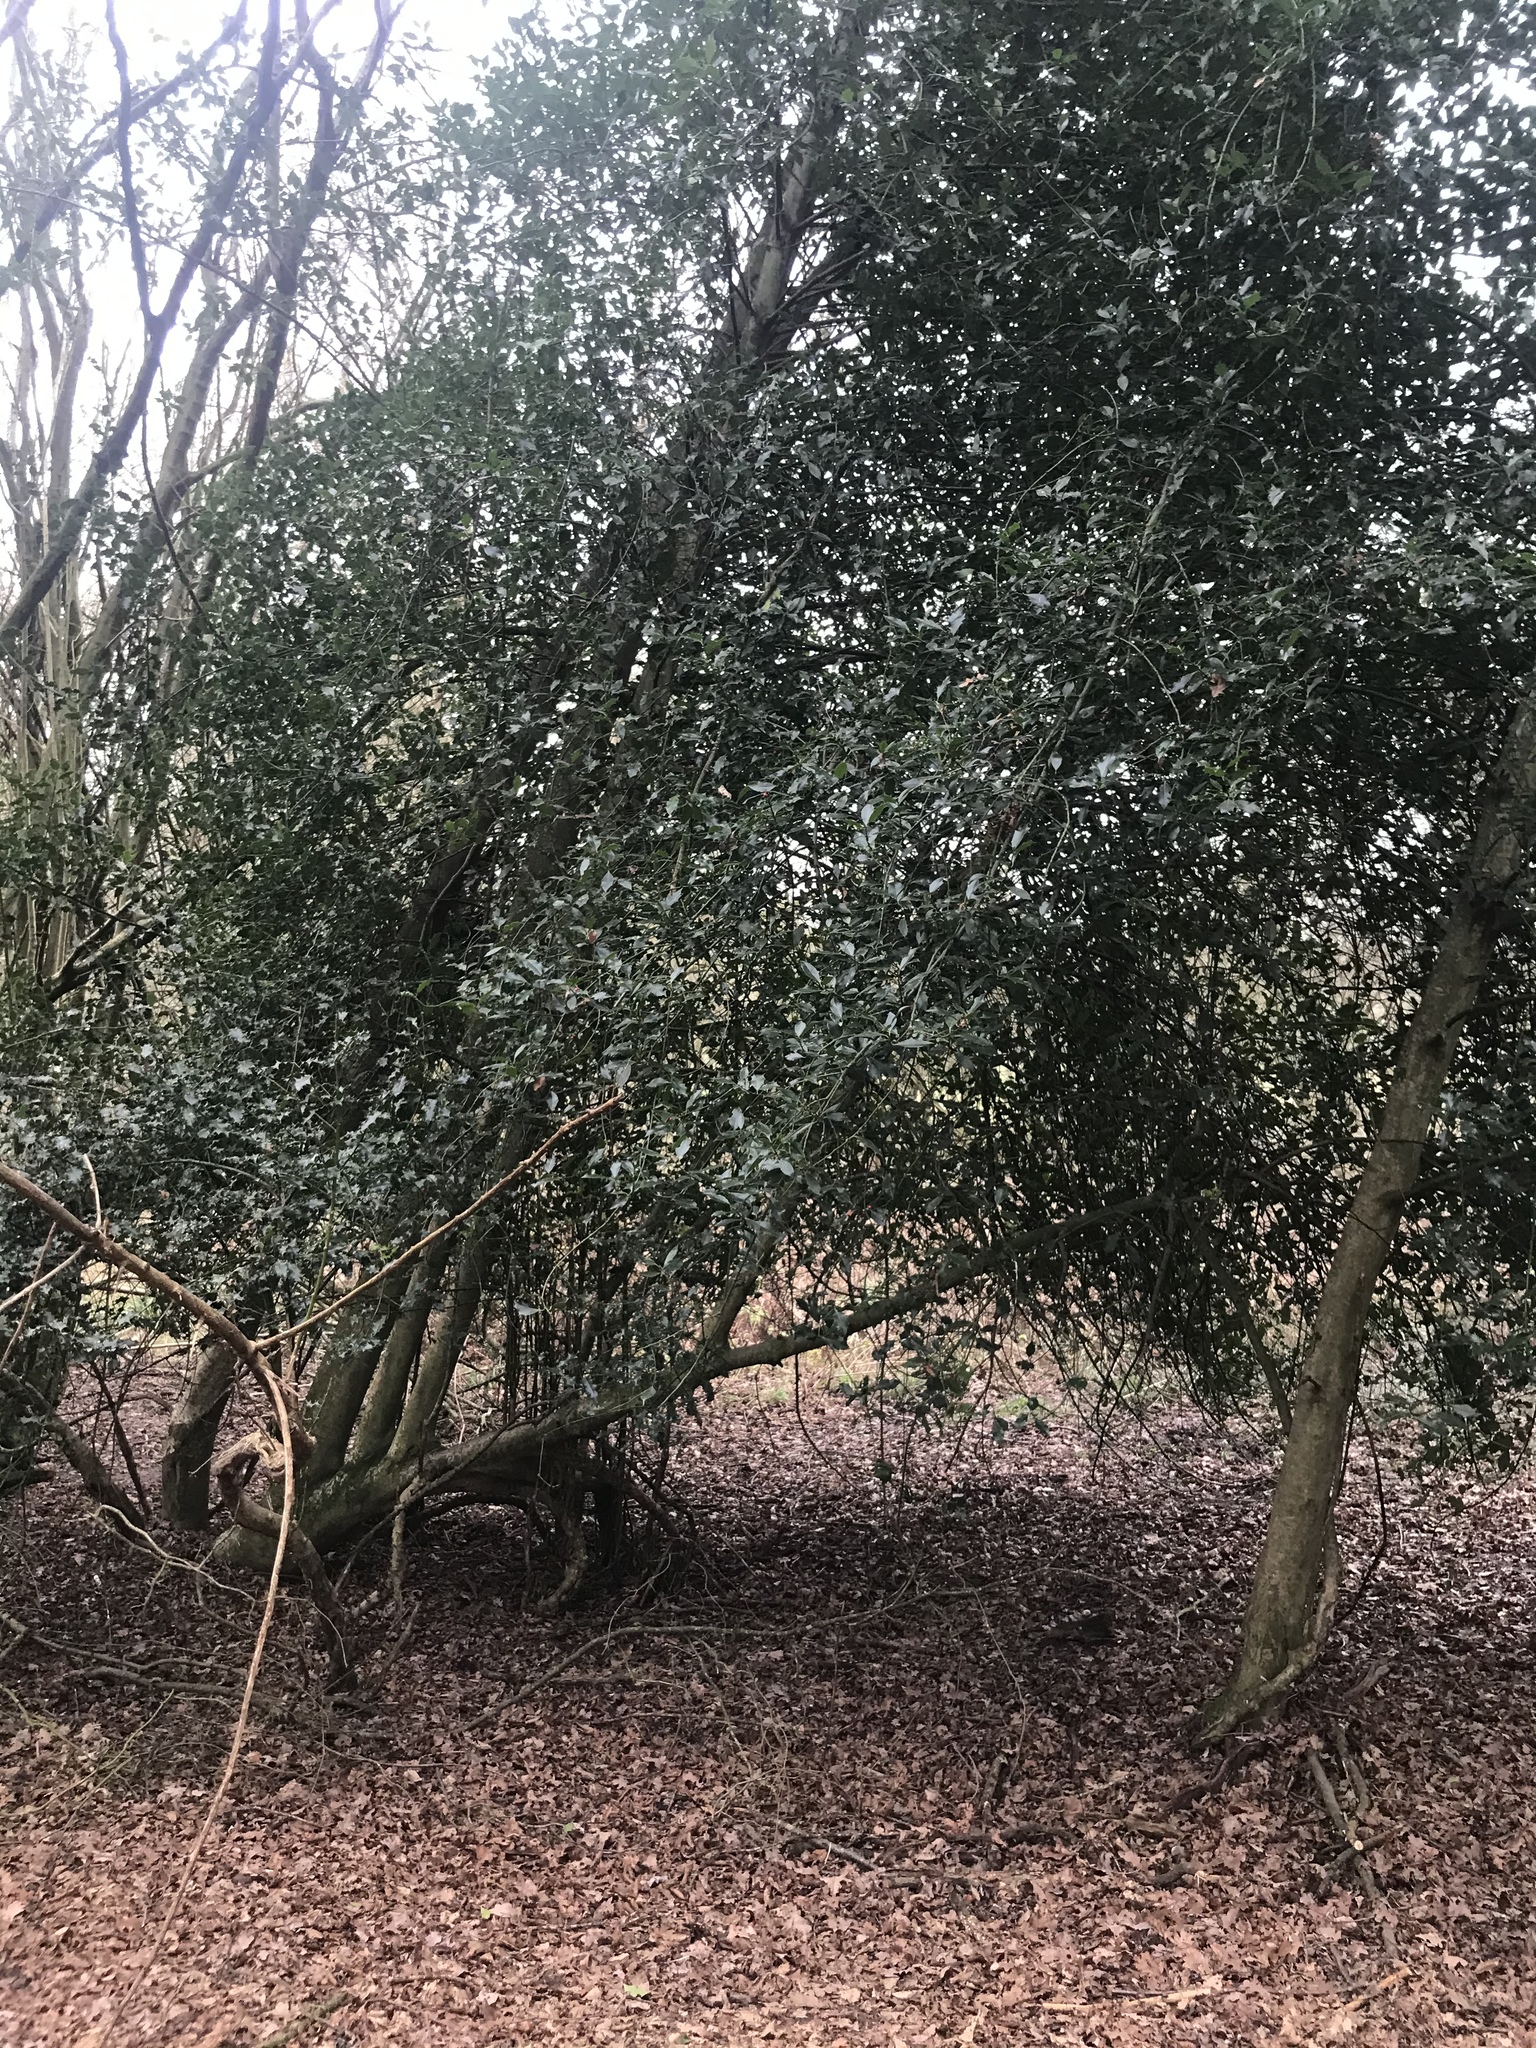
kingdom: Plantae
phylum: Tracheophyta
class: Magnoliopsida
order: Aquifoliales
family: Aquifoliaceae
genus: Ilex
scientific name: Ilex aquifolium
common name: English holly
